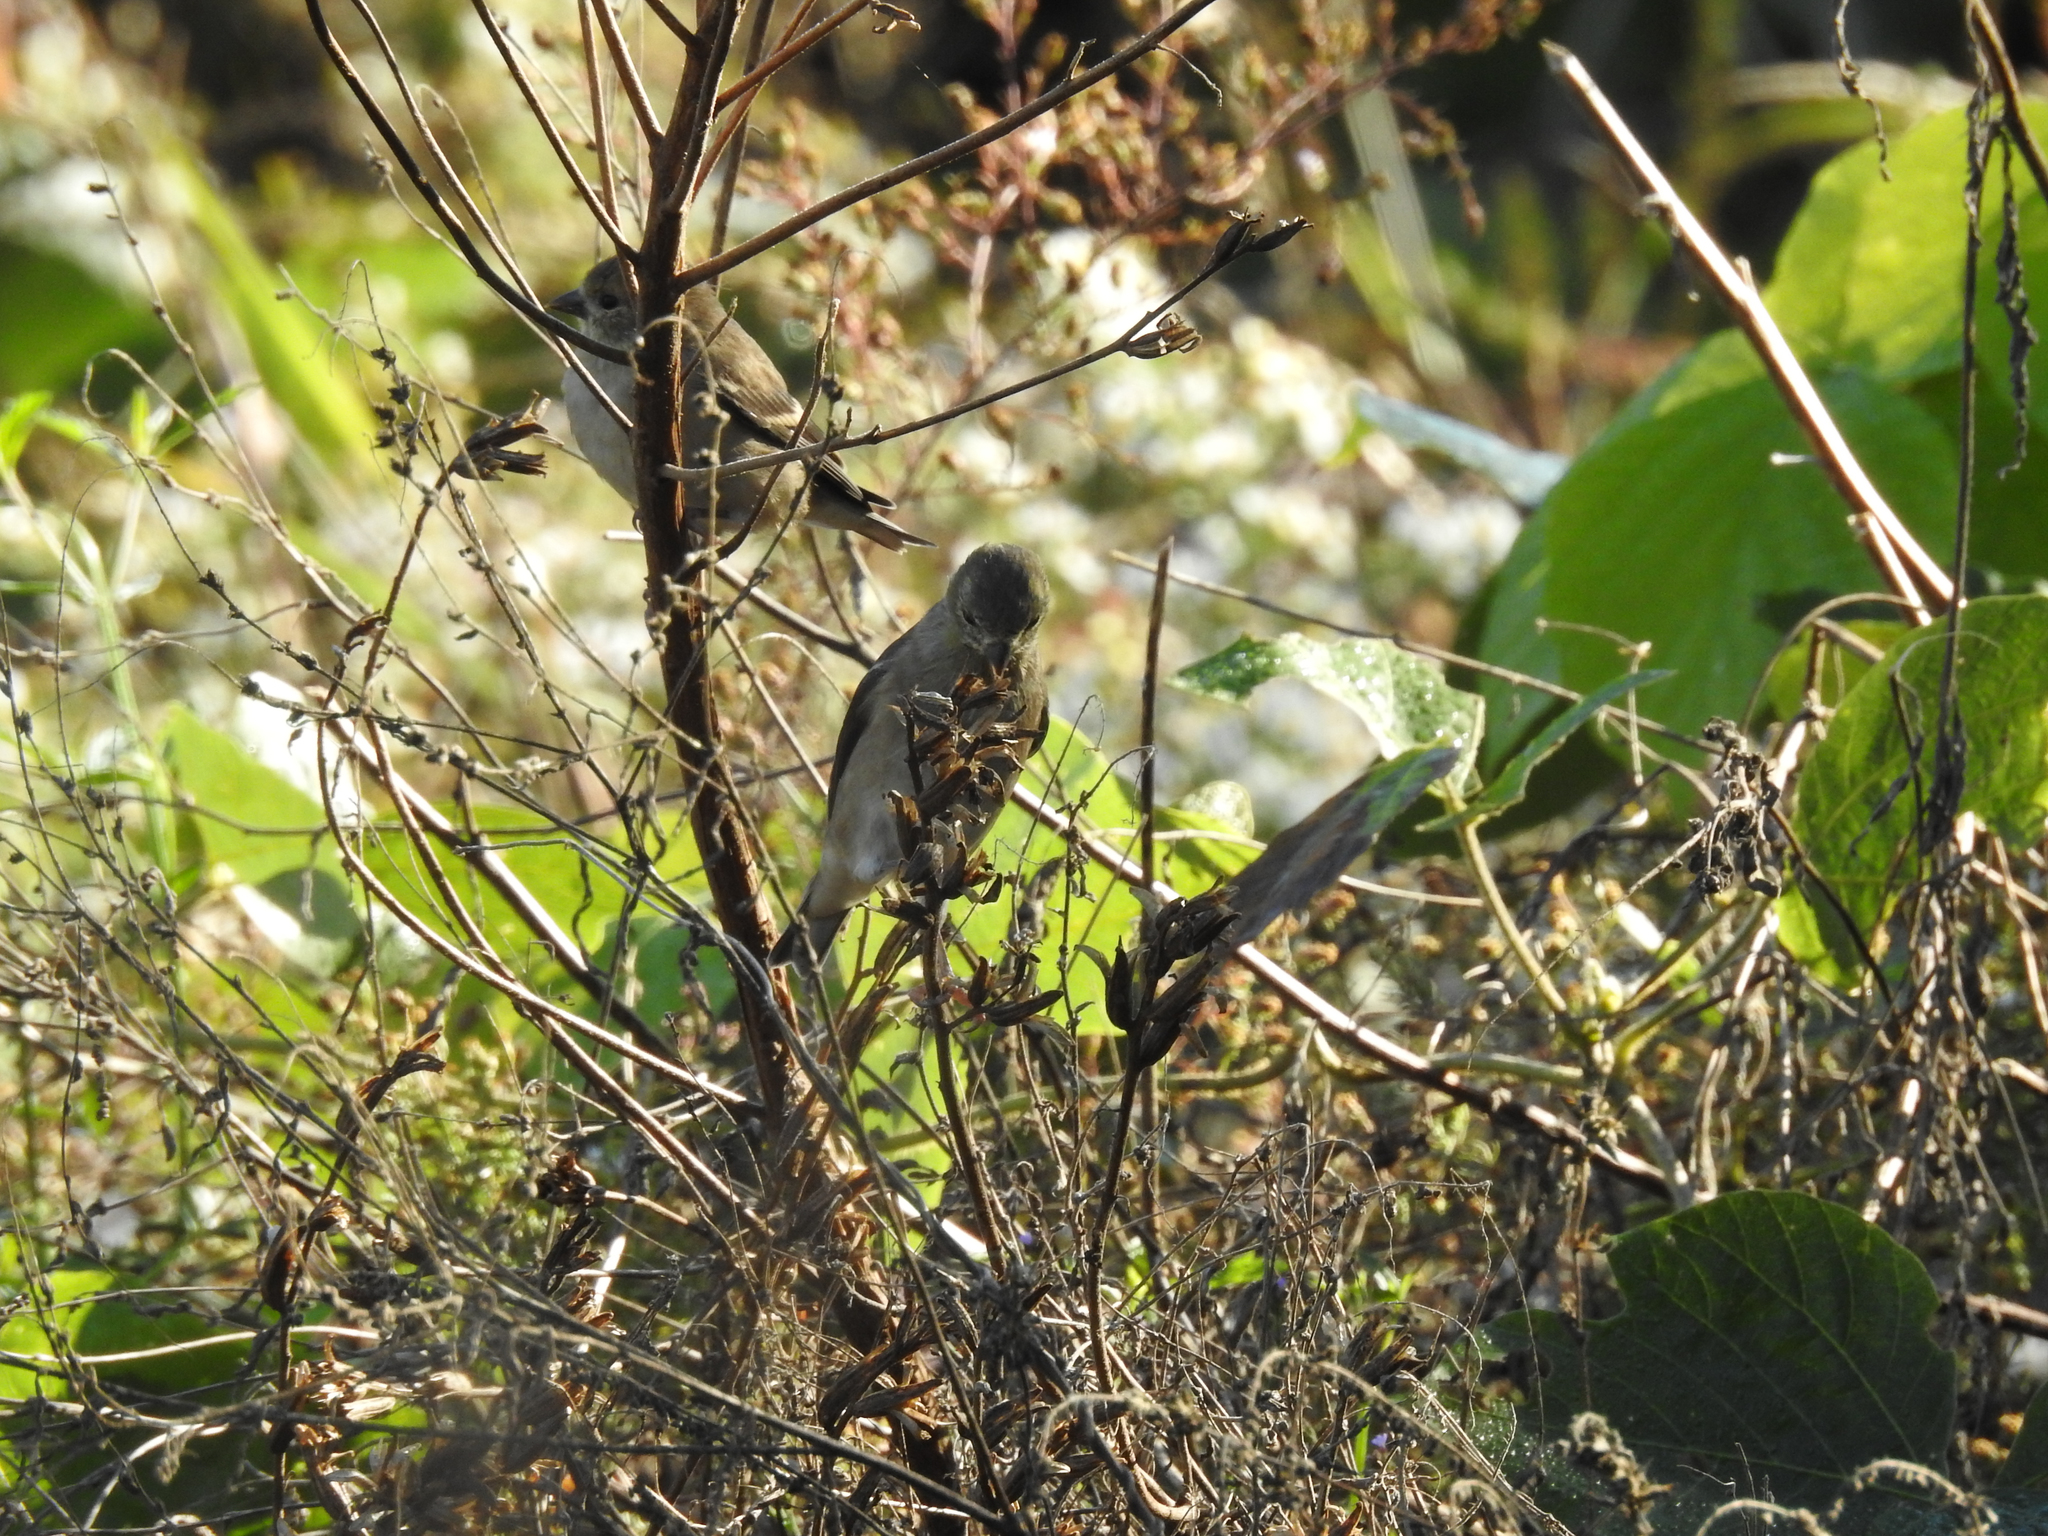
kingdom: Animalia
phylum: Chordata
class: Aves
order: Passeriformes
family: Fringillidae
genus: Spinus
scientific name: Spinus tristis
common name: American goldfinch
